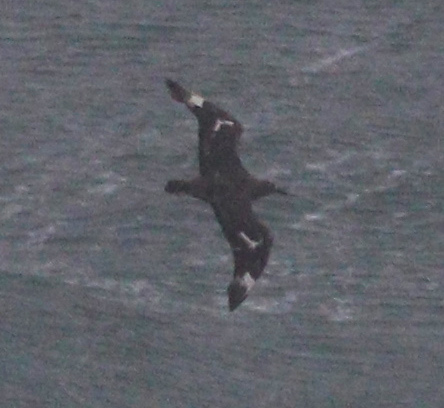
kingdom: Animalia
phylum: Chordata
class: Aves
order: Charadriiformes
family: Stercorariidae
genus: Stercorarius
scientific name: Stercorarius skua
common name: Great skua
